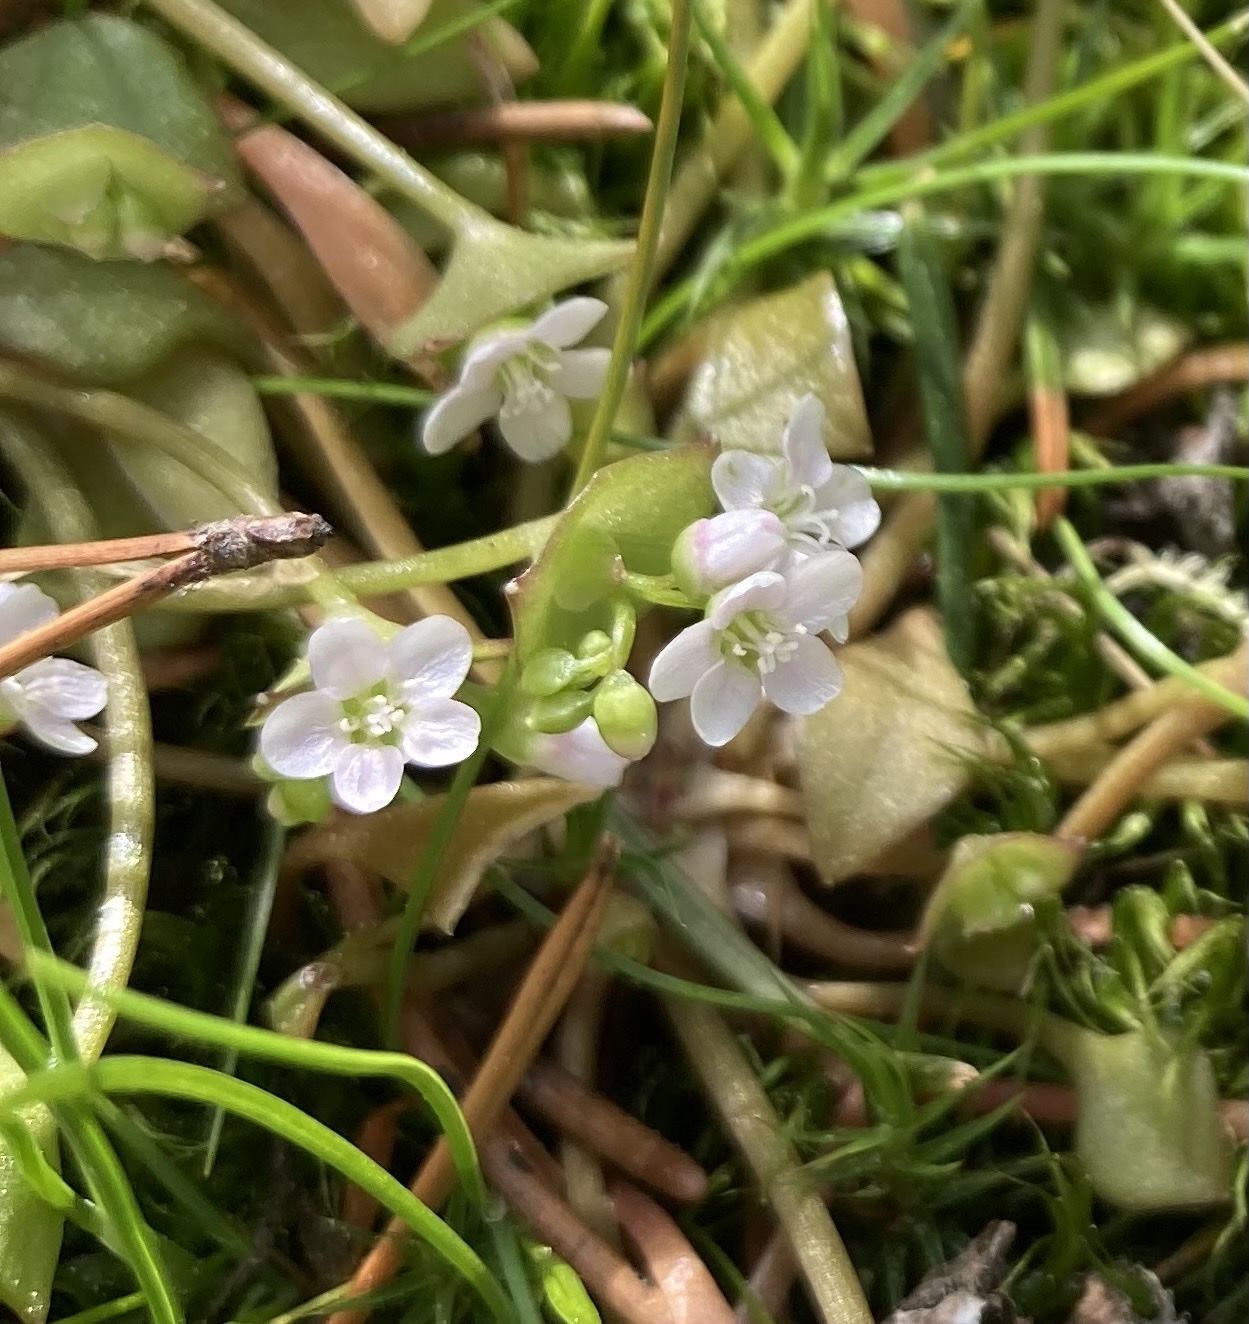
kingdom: Plantae
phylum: Tracheophyta
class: Magnoliopsida
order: Caryophyllales
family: Montiaceae
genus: Claytonia
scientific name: Claytonia rubra
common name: Erubescent miner's-lettuce
